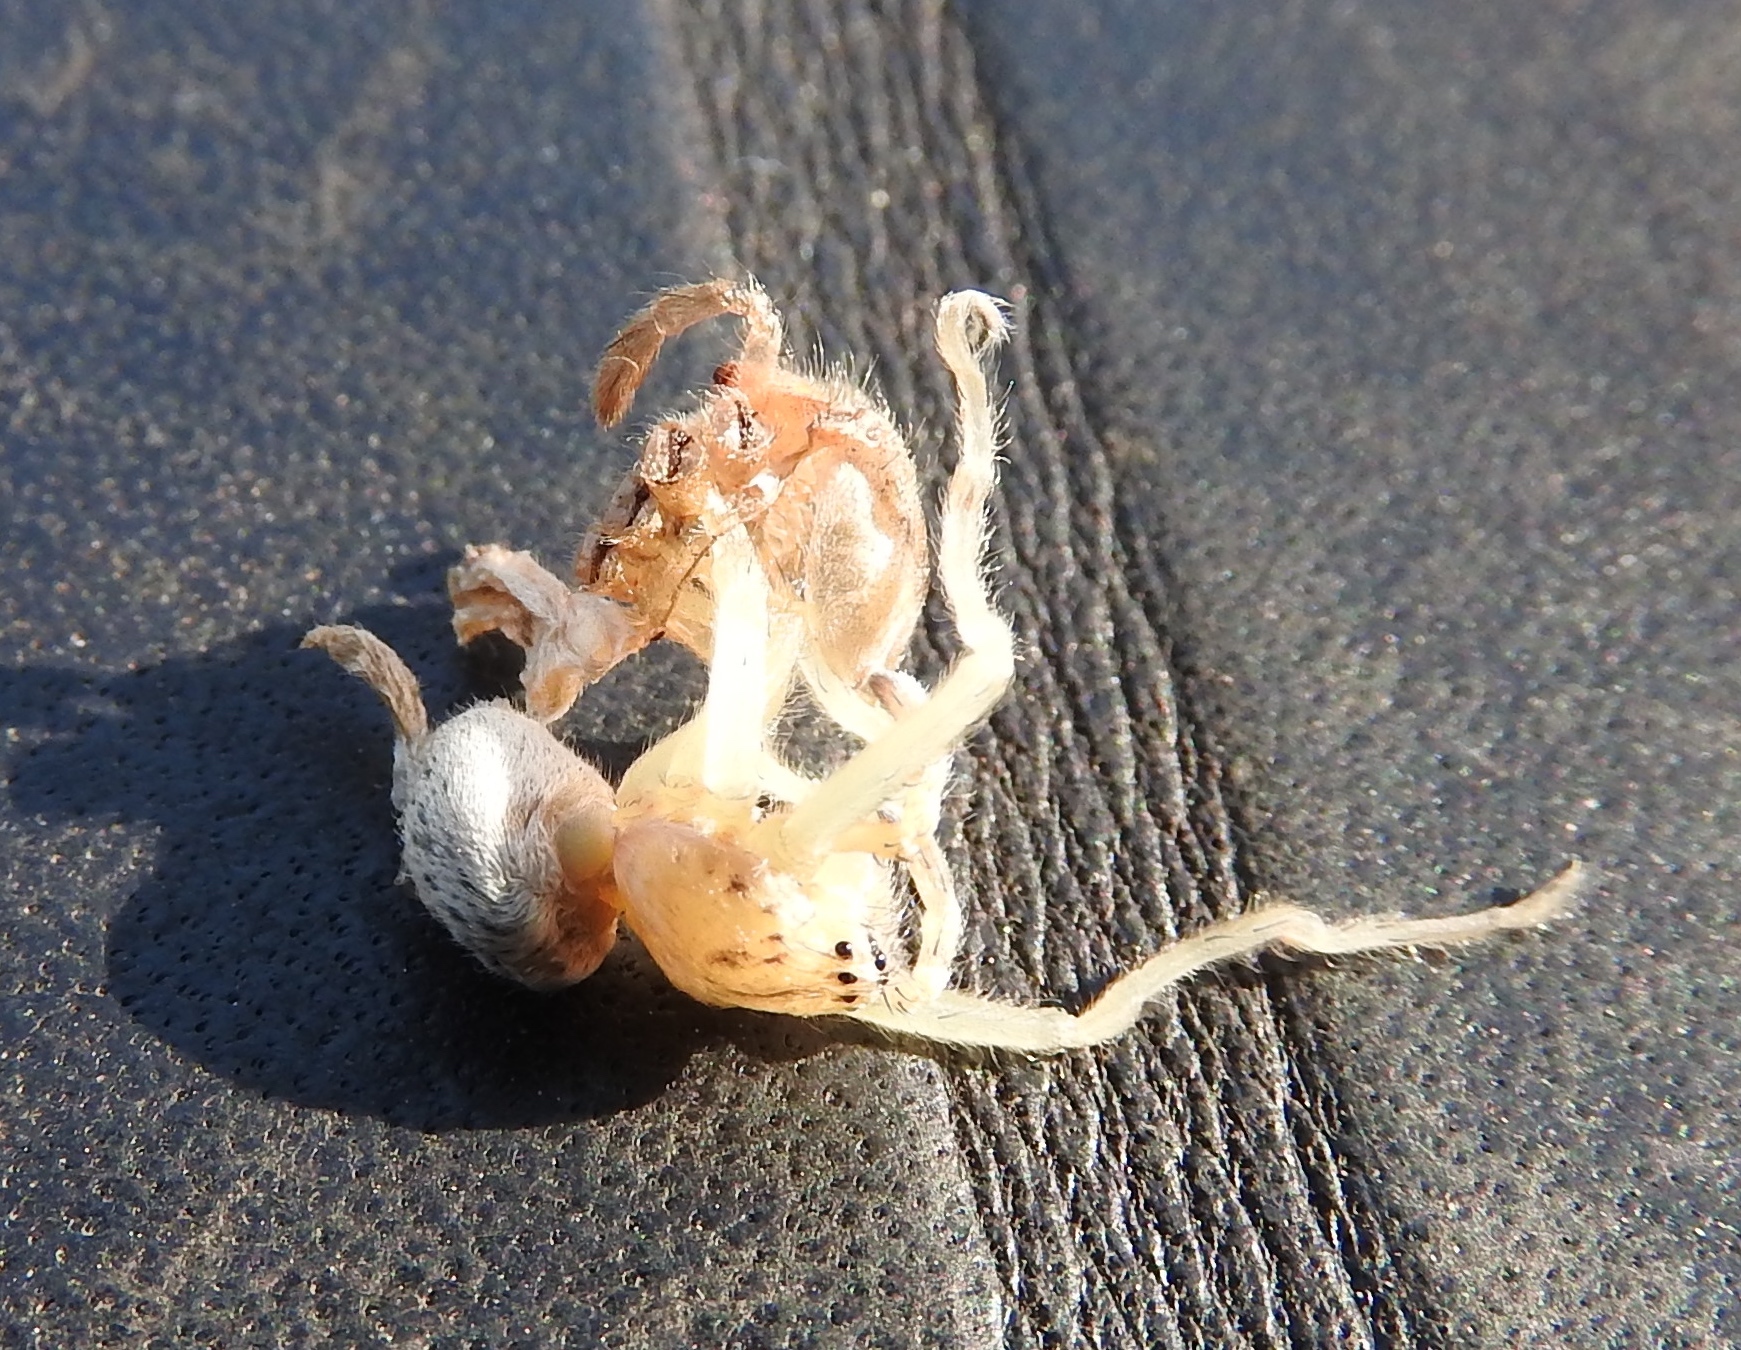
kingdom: Animalia
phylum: Arthropoda
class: Arachnida
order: Araneae
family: Sparassidae
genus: Curicaberis
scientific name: Curicaberis culiacan
